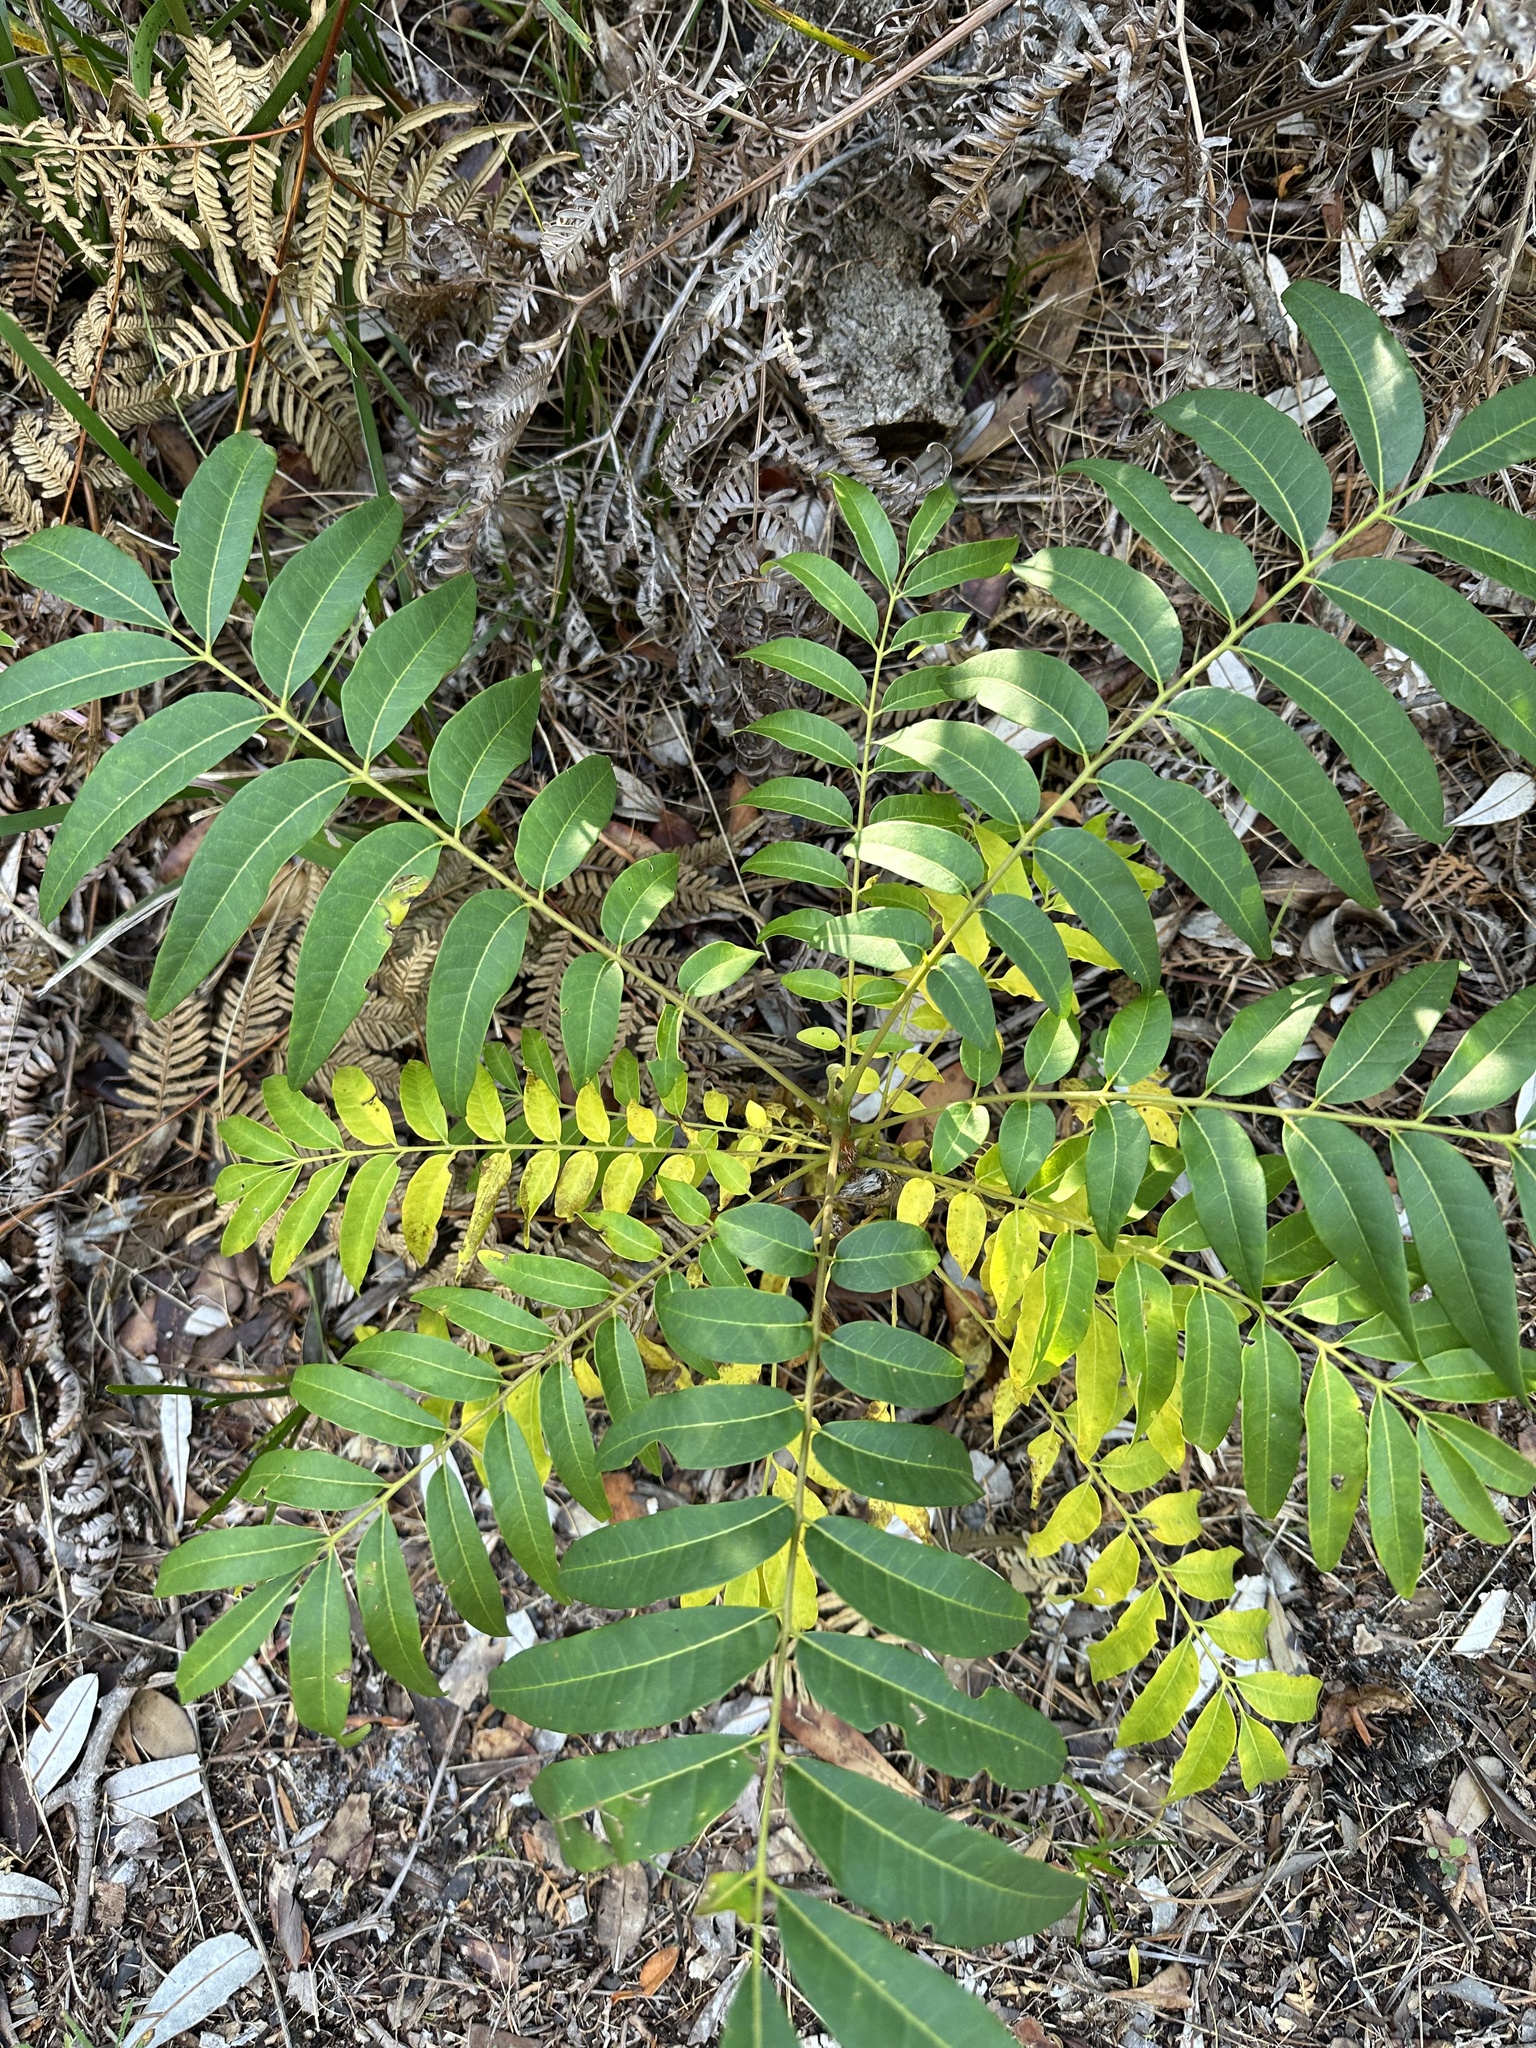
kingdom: Plantae
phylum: Tracheophyta
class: Magnoliopsida
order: Apiales
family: Araliaceae
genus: Polyscias
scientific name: Polyscias murrayi
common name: Pencil cedar
